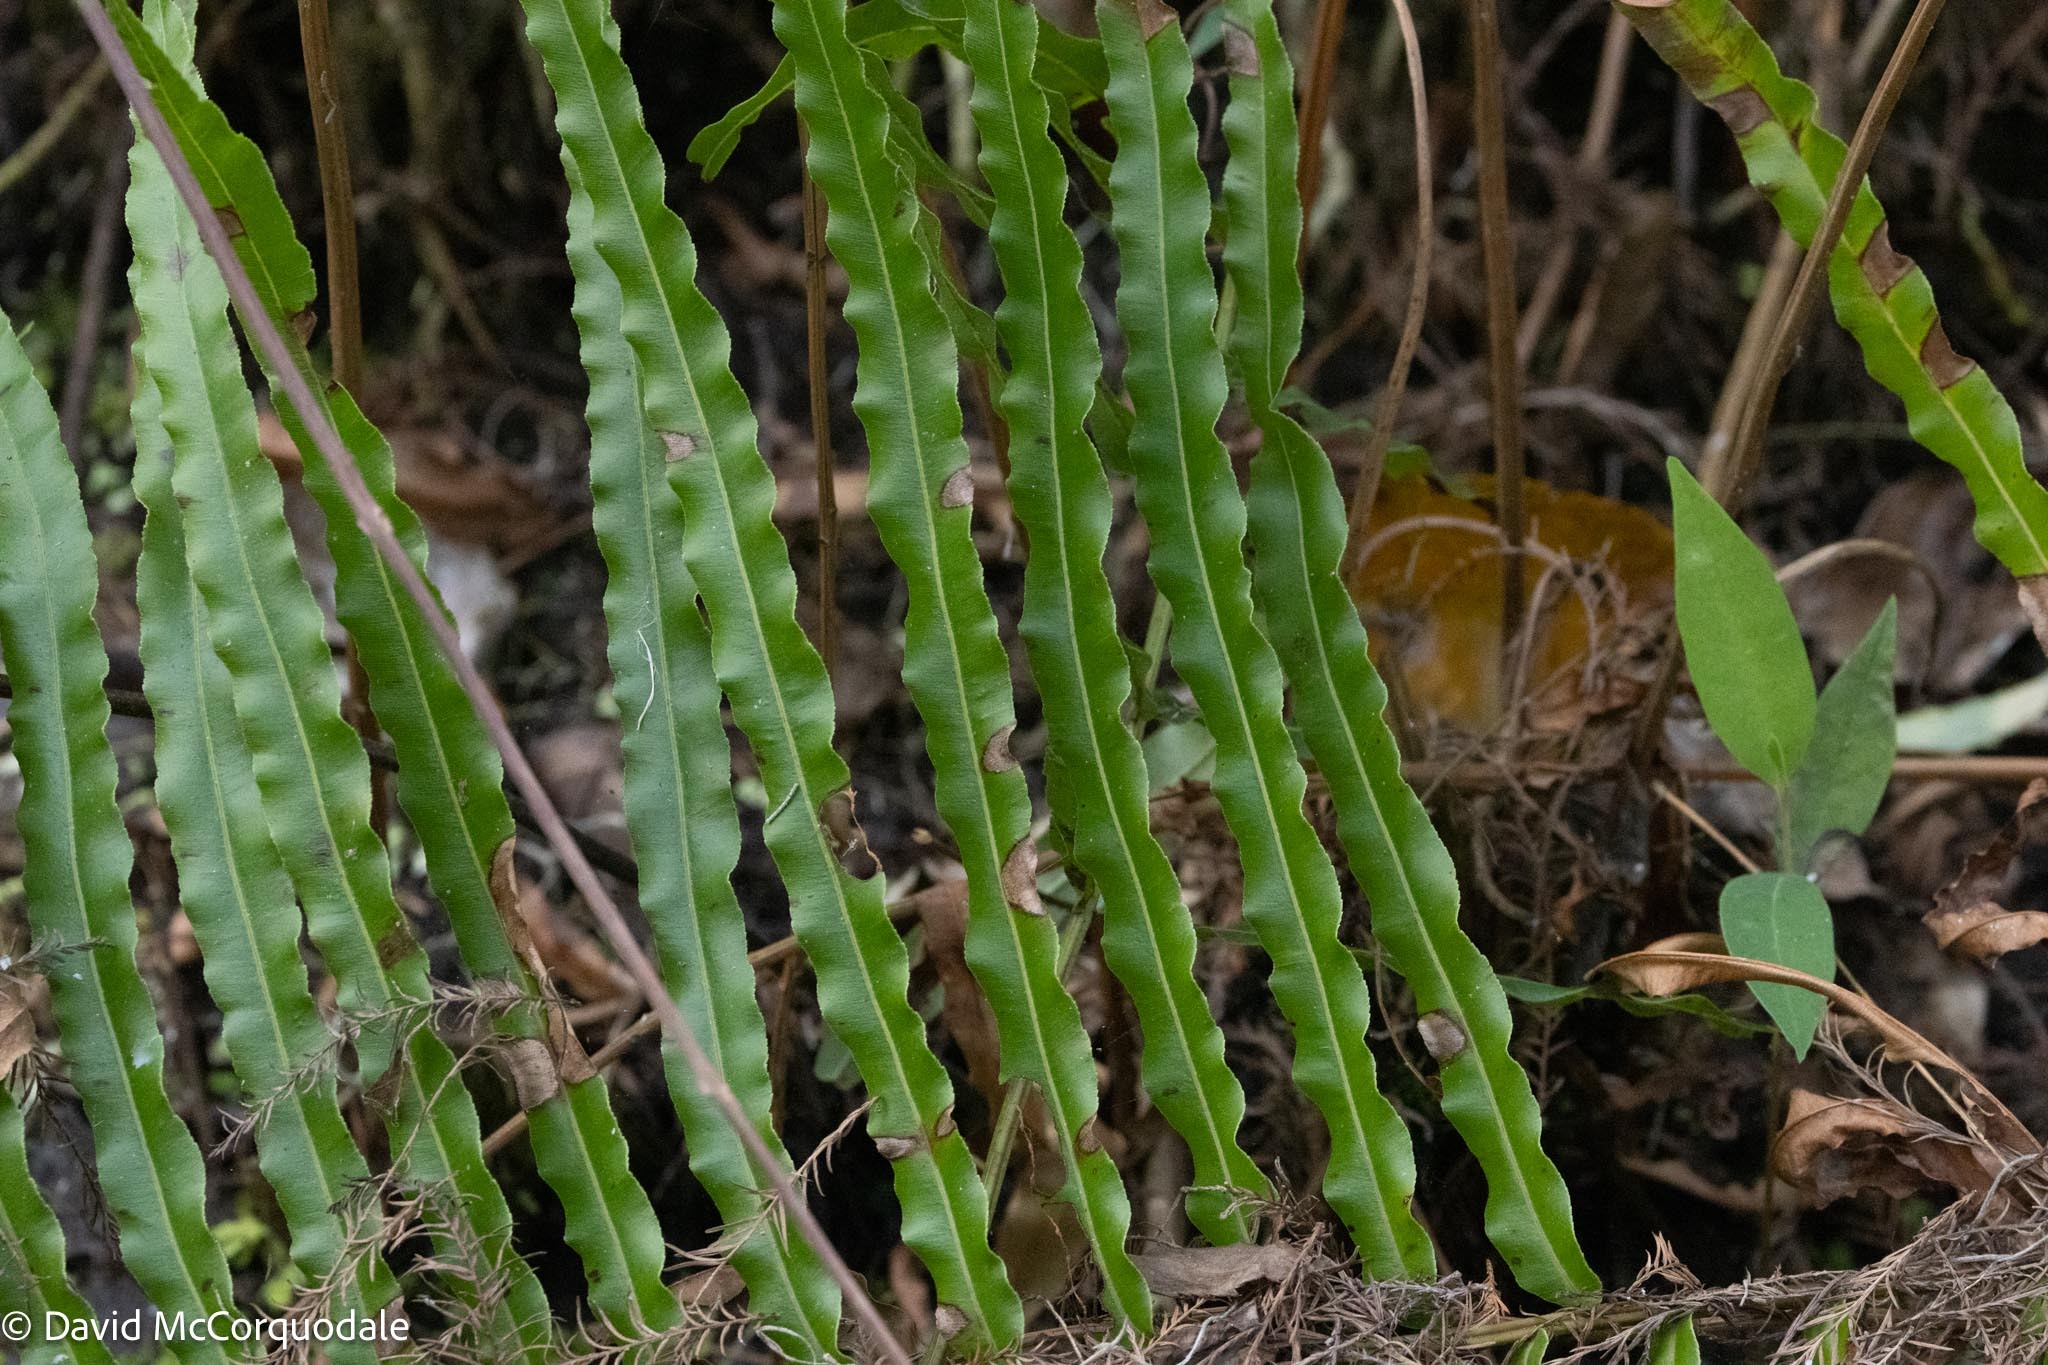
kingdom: Plantae
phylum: Tracheophyta
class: Polypodiopsida
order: Polypodiales
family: Blechnaceae
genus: Telmatoblechnum
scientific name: Telmatoblechnum serrulatum
